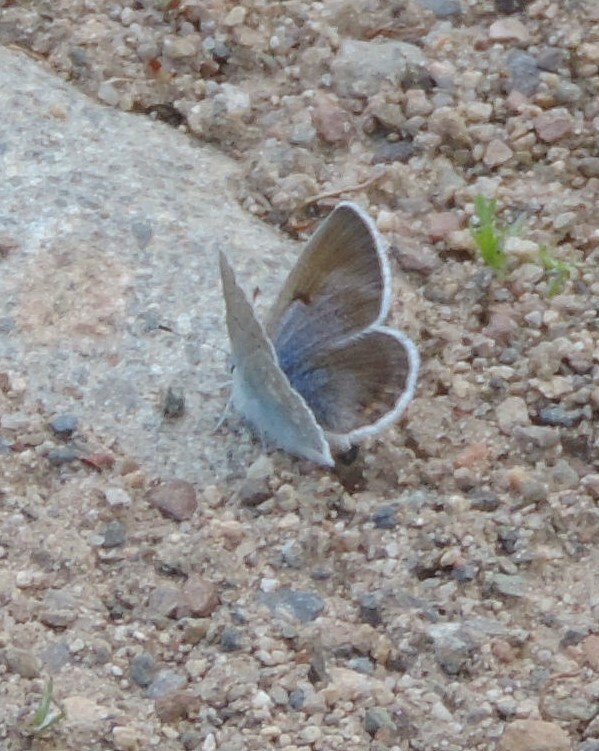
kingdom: Animalia
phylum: Arthropoda
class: Insecta
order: Lepidoptera
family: Lycaenidae
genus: Icaricia
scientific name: Icaricia icarioides
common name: Boisduval's blue
